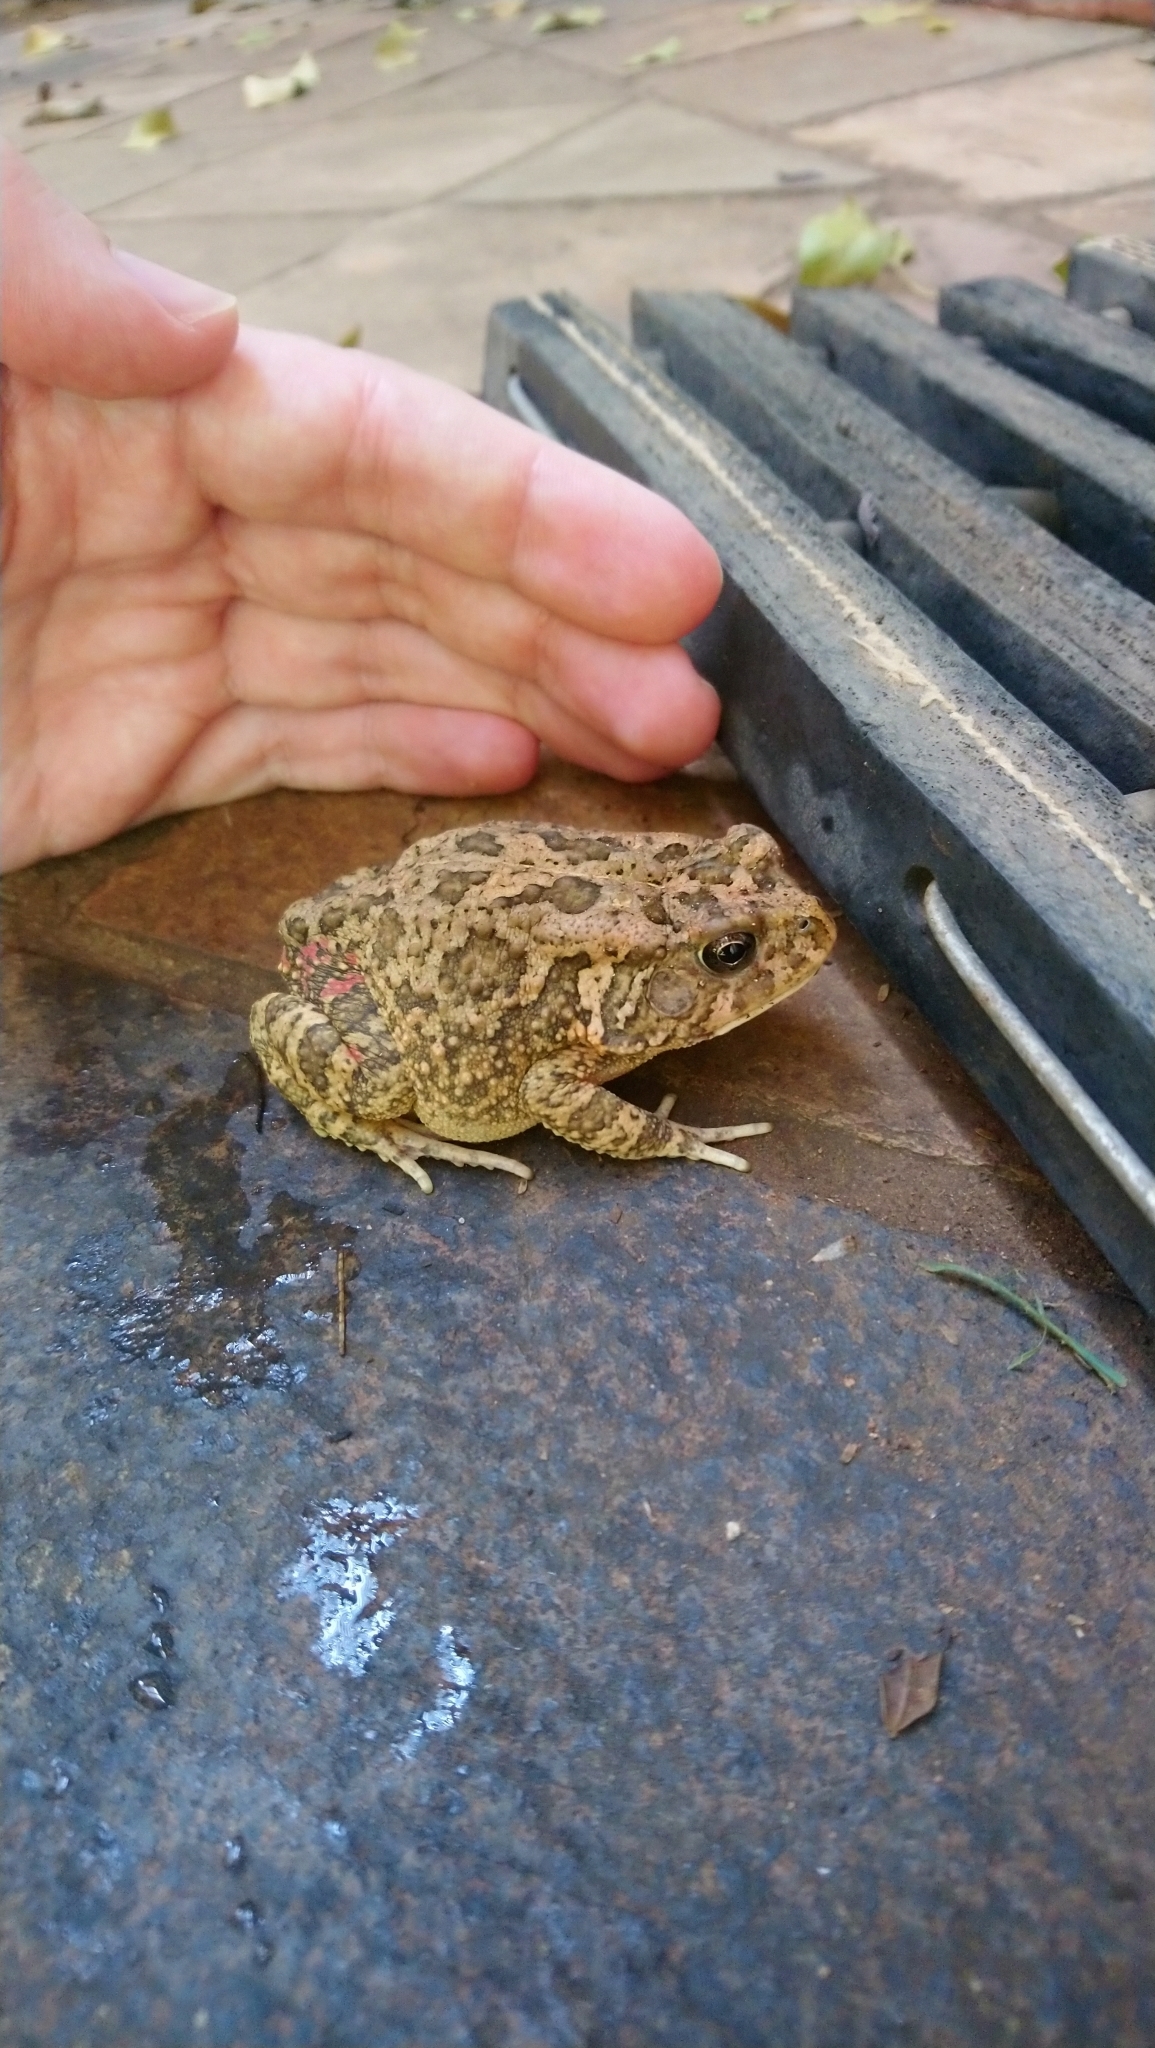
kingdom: Animalia
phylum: Chordata
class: Amphibia
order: Anura
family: Bufonidae
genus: Sclerophrys
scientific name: Sclerophrys gutturalis
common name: African common toad
